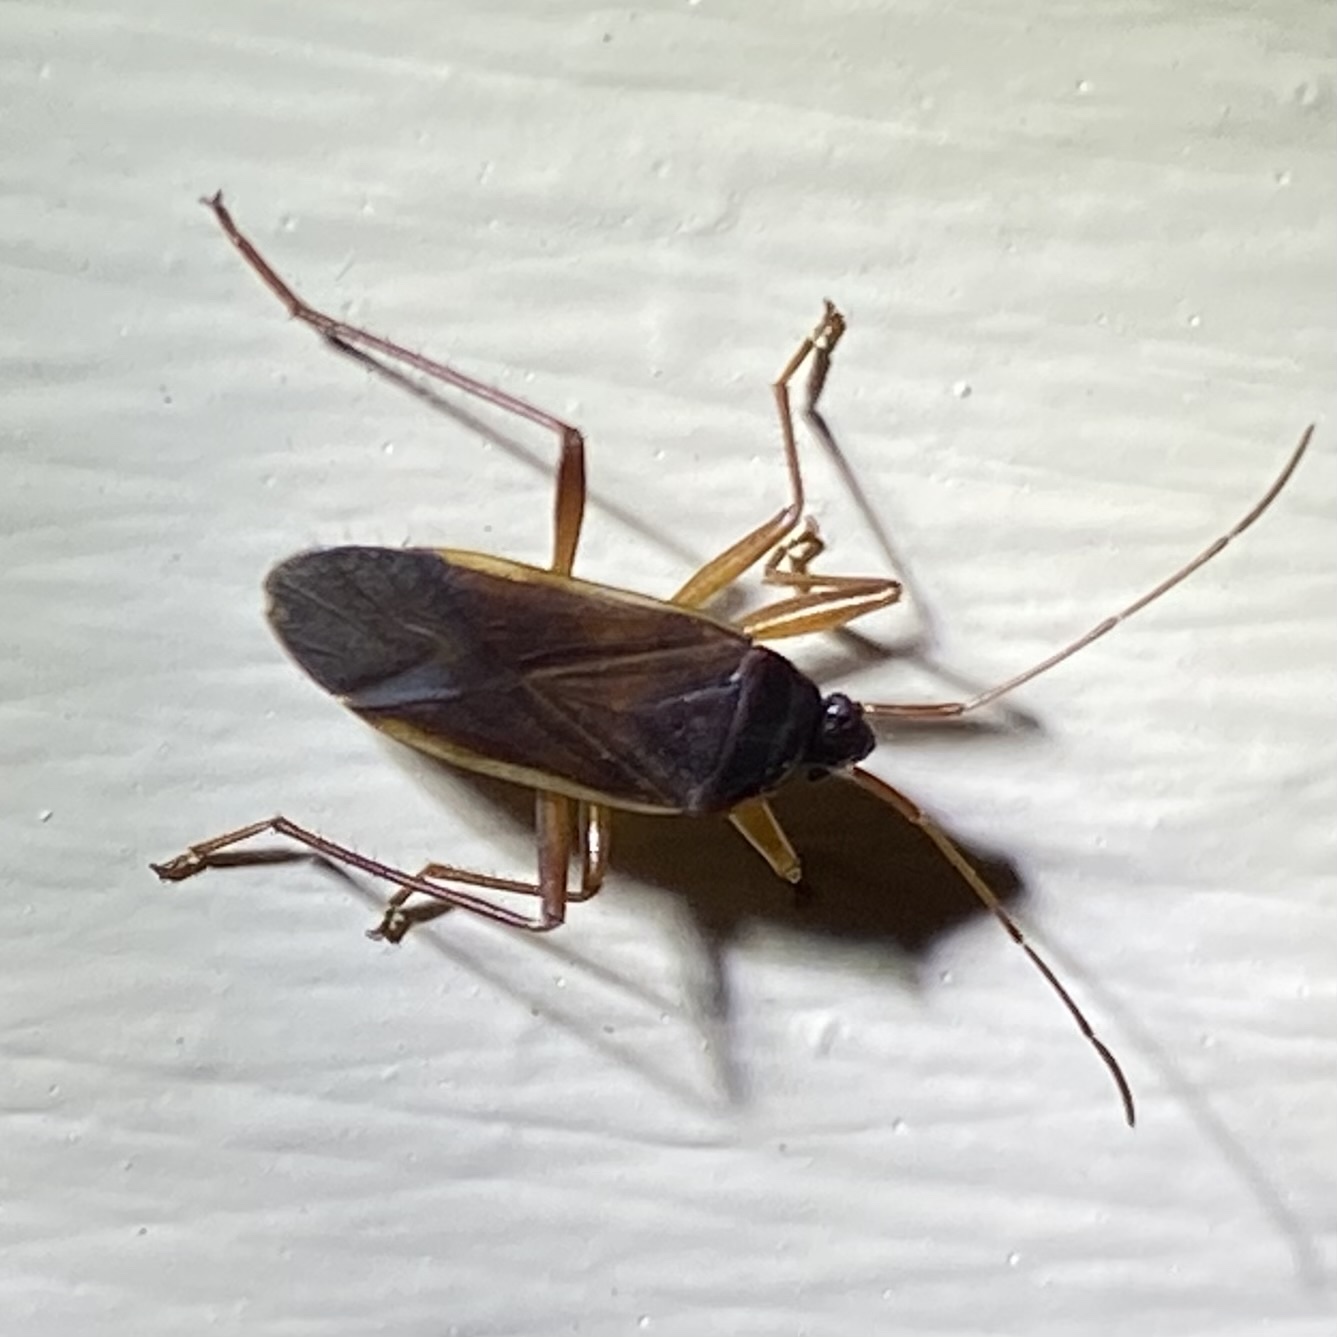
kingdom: Animalia
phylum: Arthropoda
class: Insecta
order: Hemiptera
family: Rhyparochromidae
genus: Balboa
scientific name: Balboa ampliata
